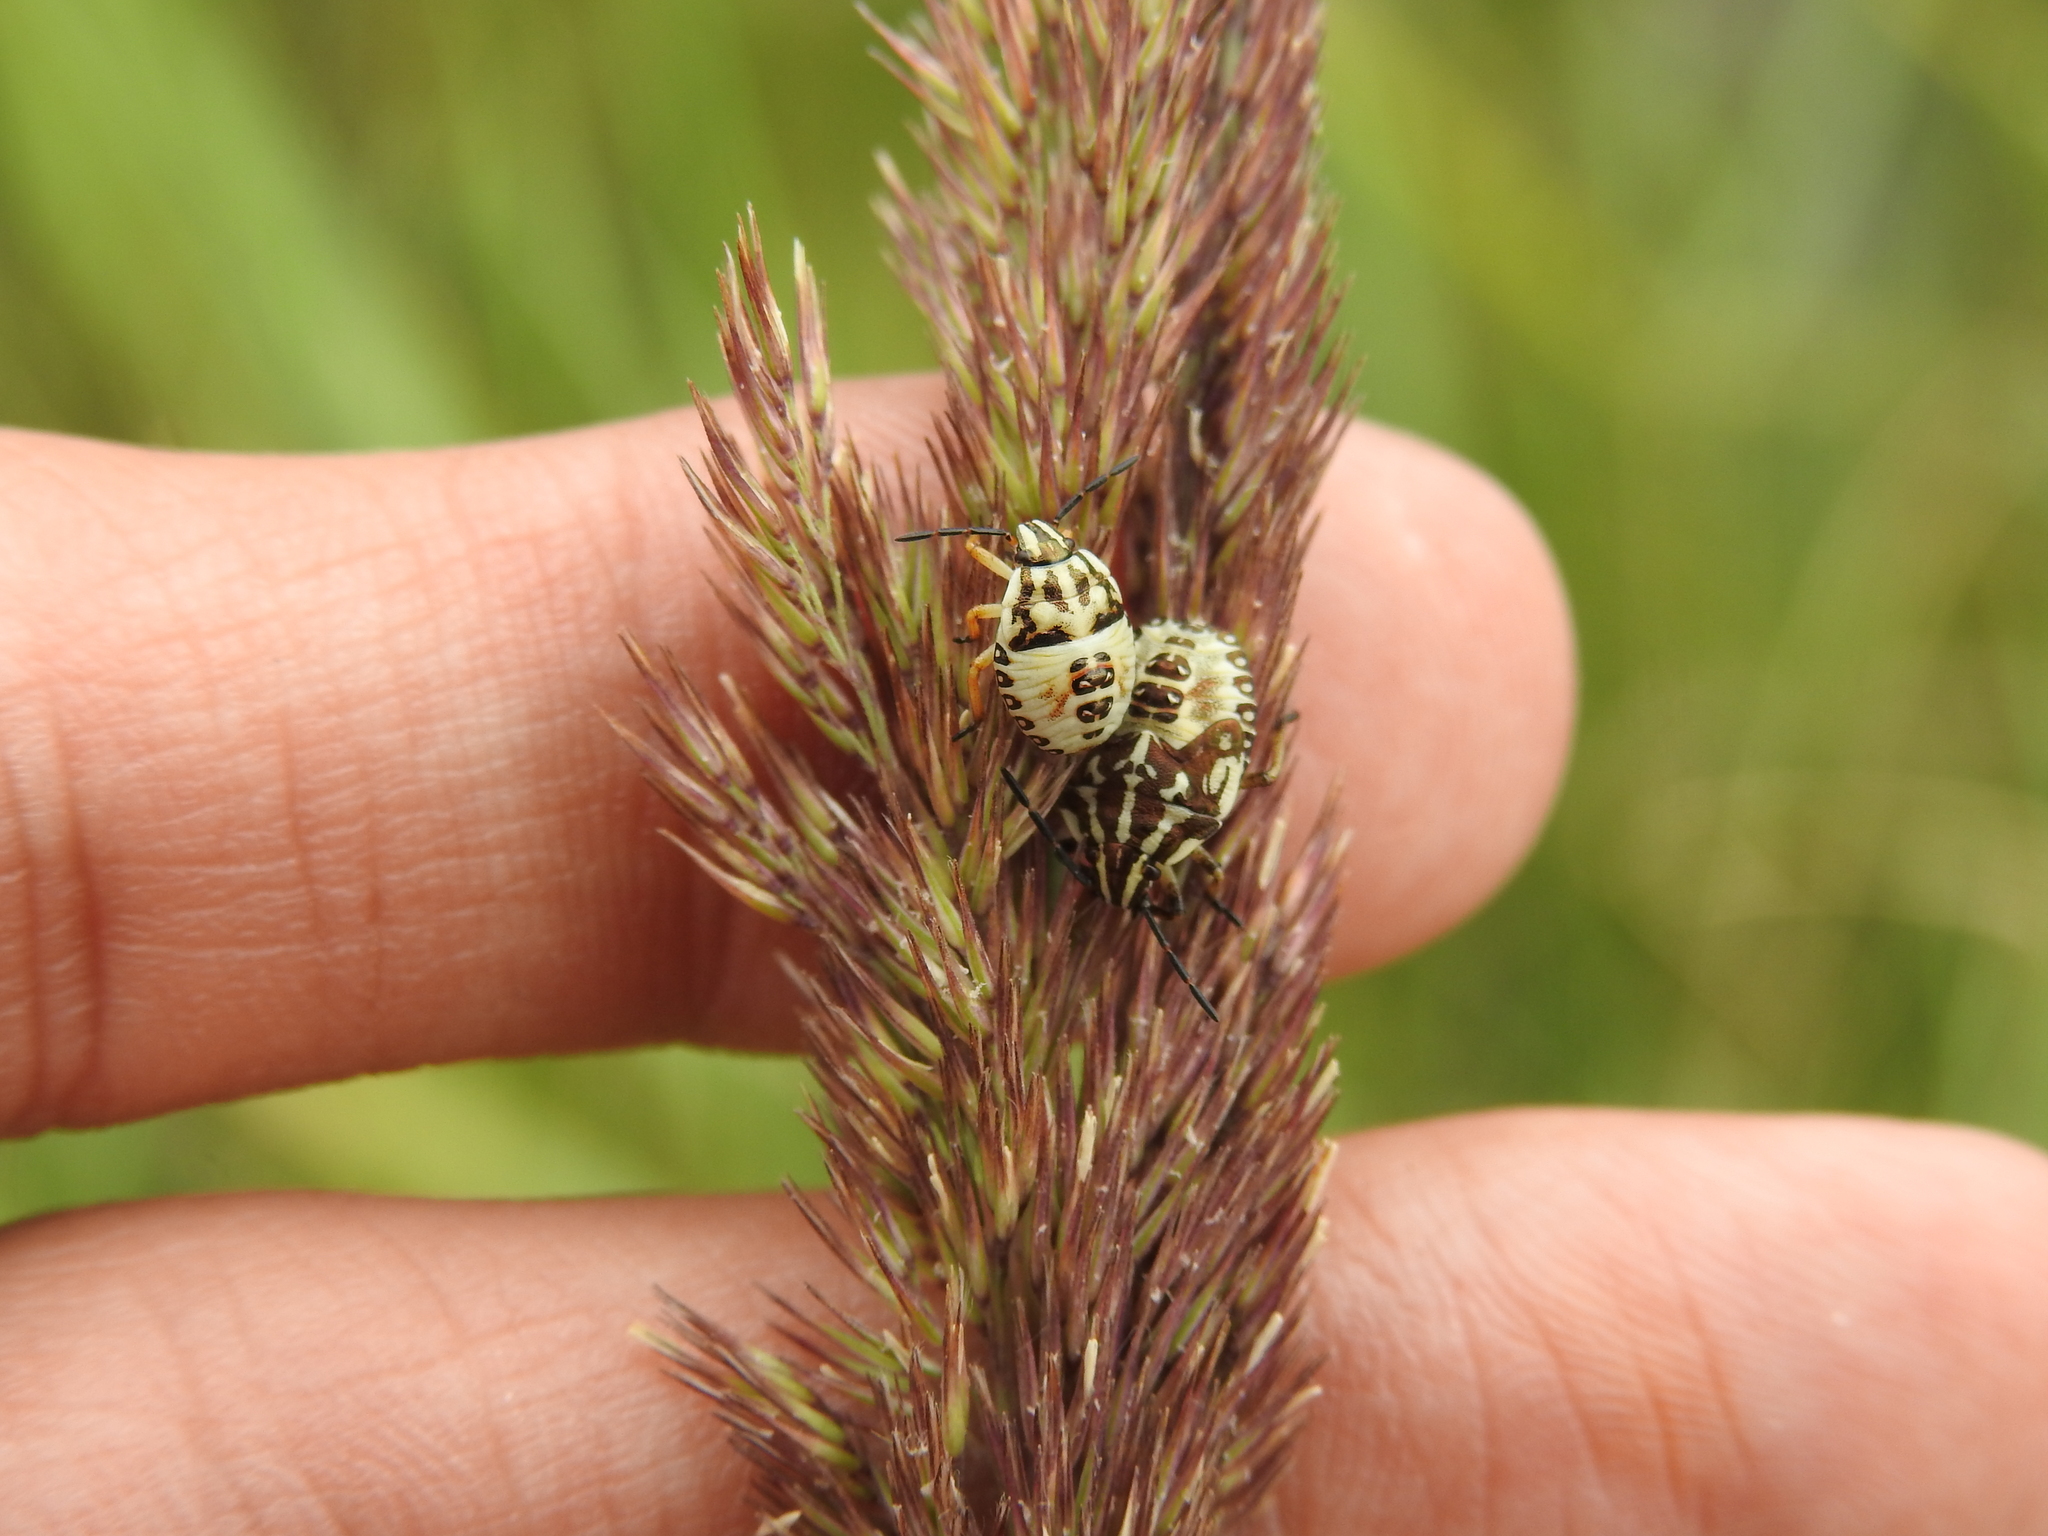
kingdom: Animalia
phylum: Arthropoda
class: Insecta
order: Hemiptera
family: Pentatomidae
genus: Carpocoris
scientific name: Carpocoris purpureipennis
